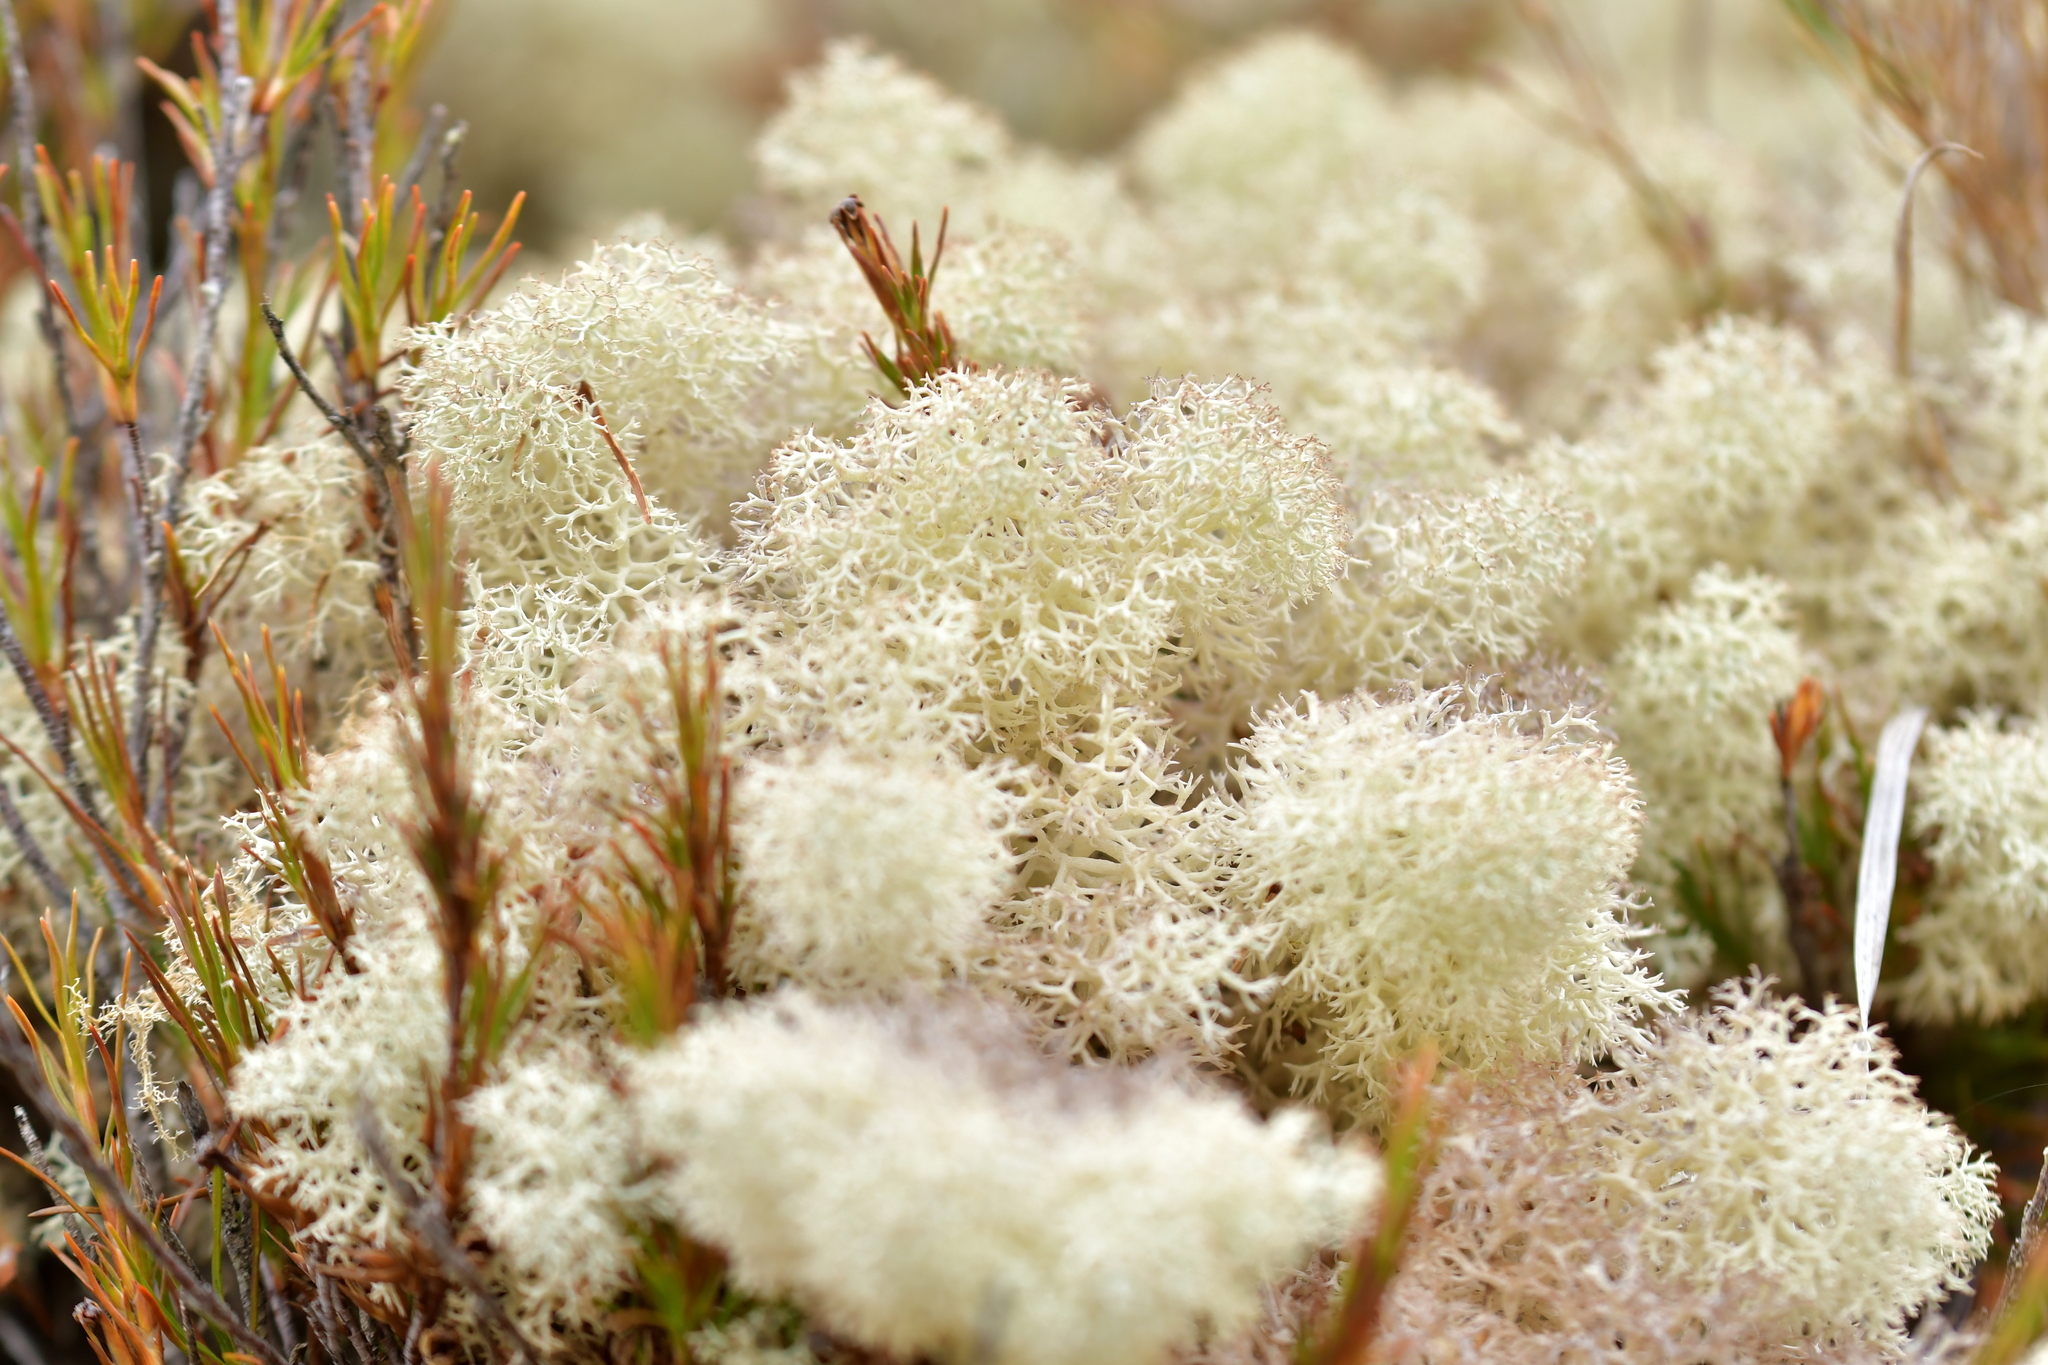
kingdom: Fungi
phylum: Ascomycota
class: Lecanoromycetes
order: Lecanorales
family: Cladoniaceae
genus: Cladonia
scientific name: Cladonia confusa
